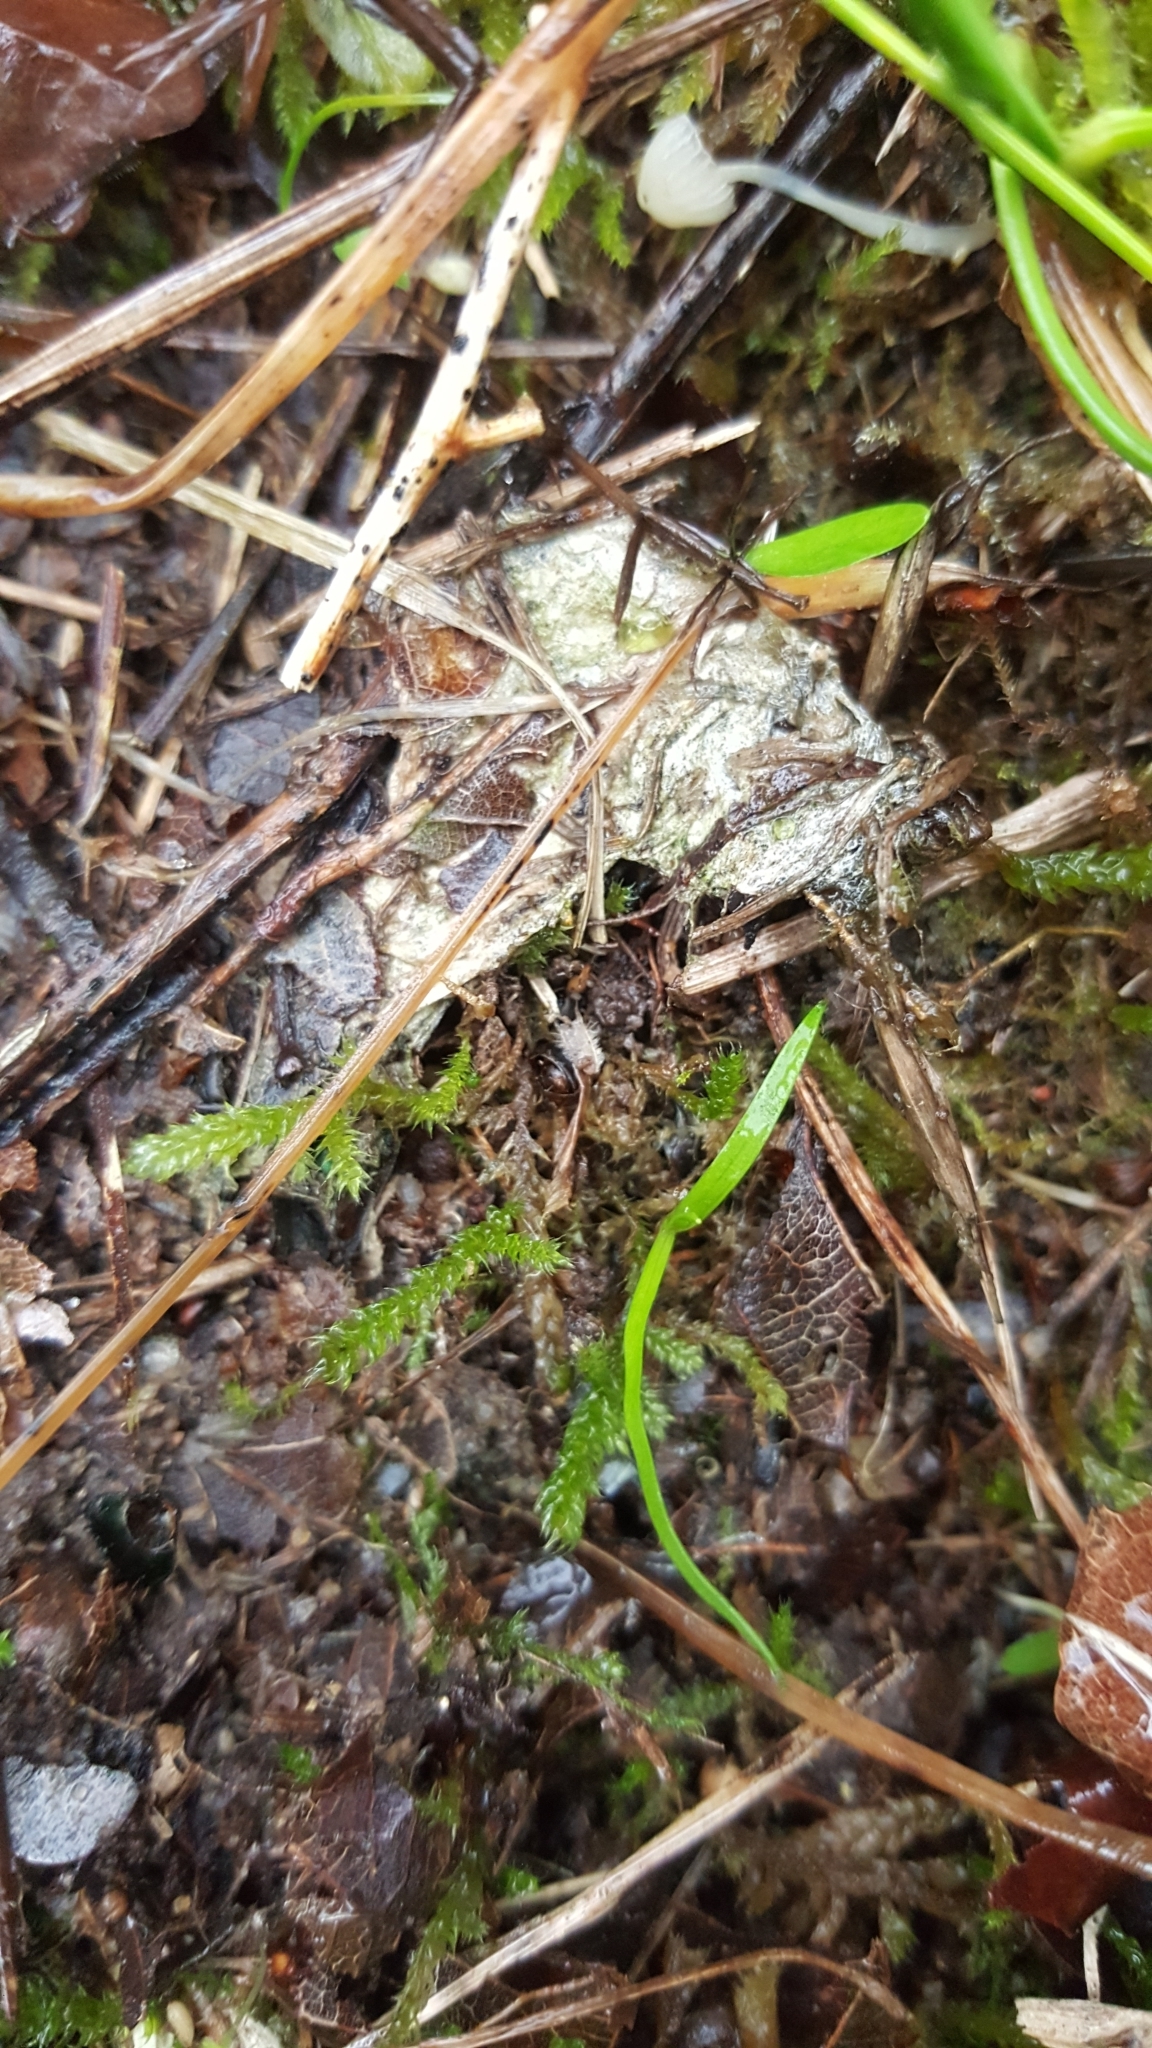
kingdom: Animalia
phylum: Arthropoda
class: Arachnida
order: Araneae
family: Eresidae
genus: Eresus
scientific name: Eresus sandaliatus
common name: Ladybird spider
